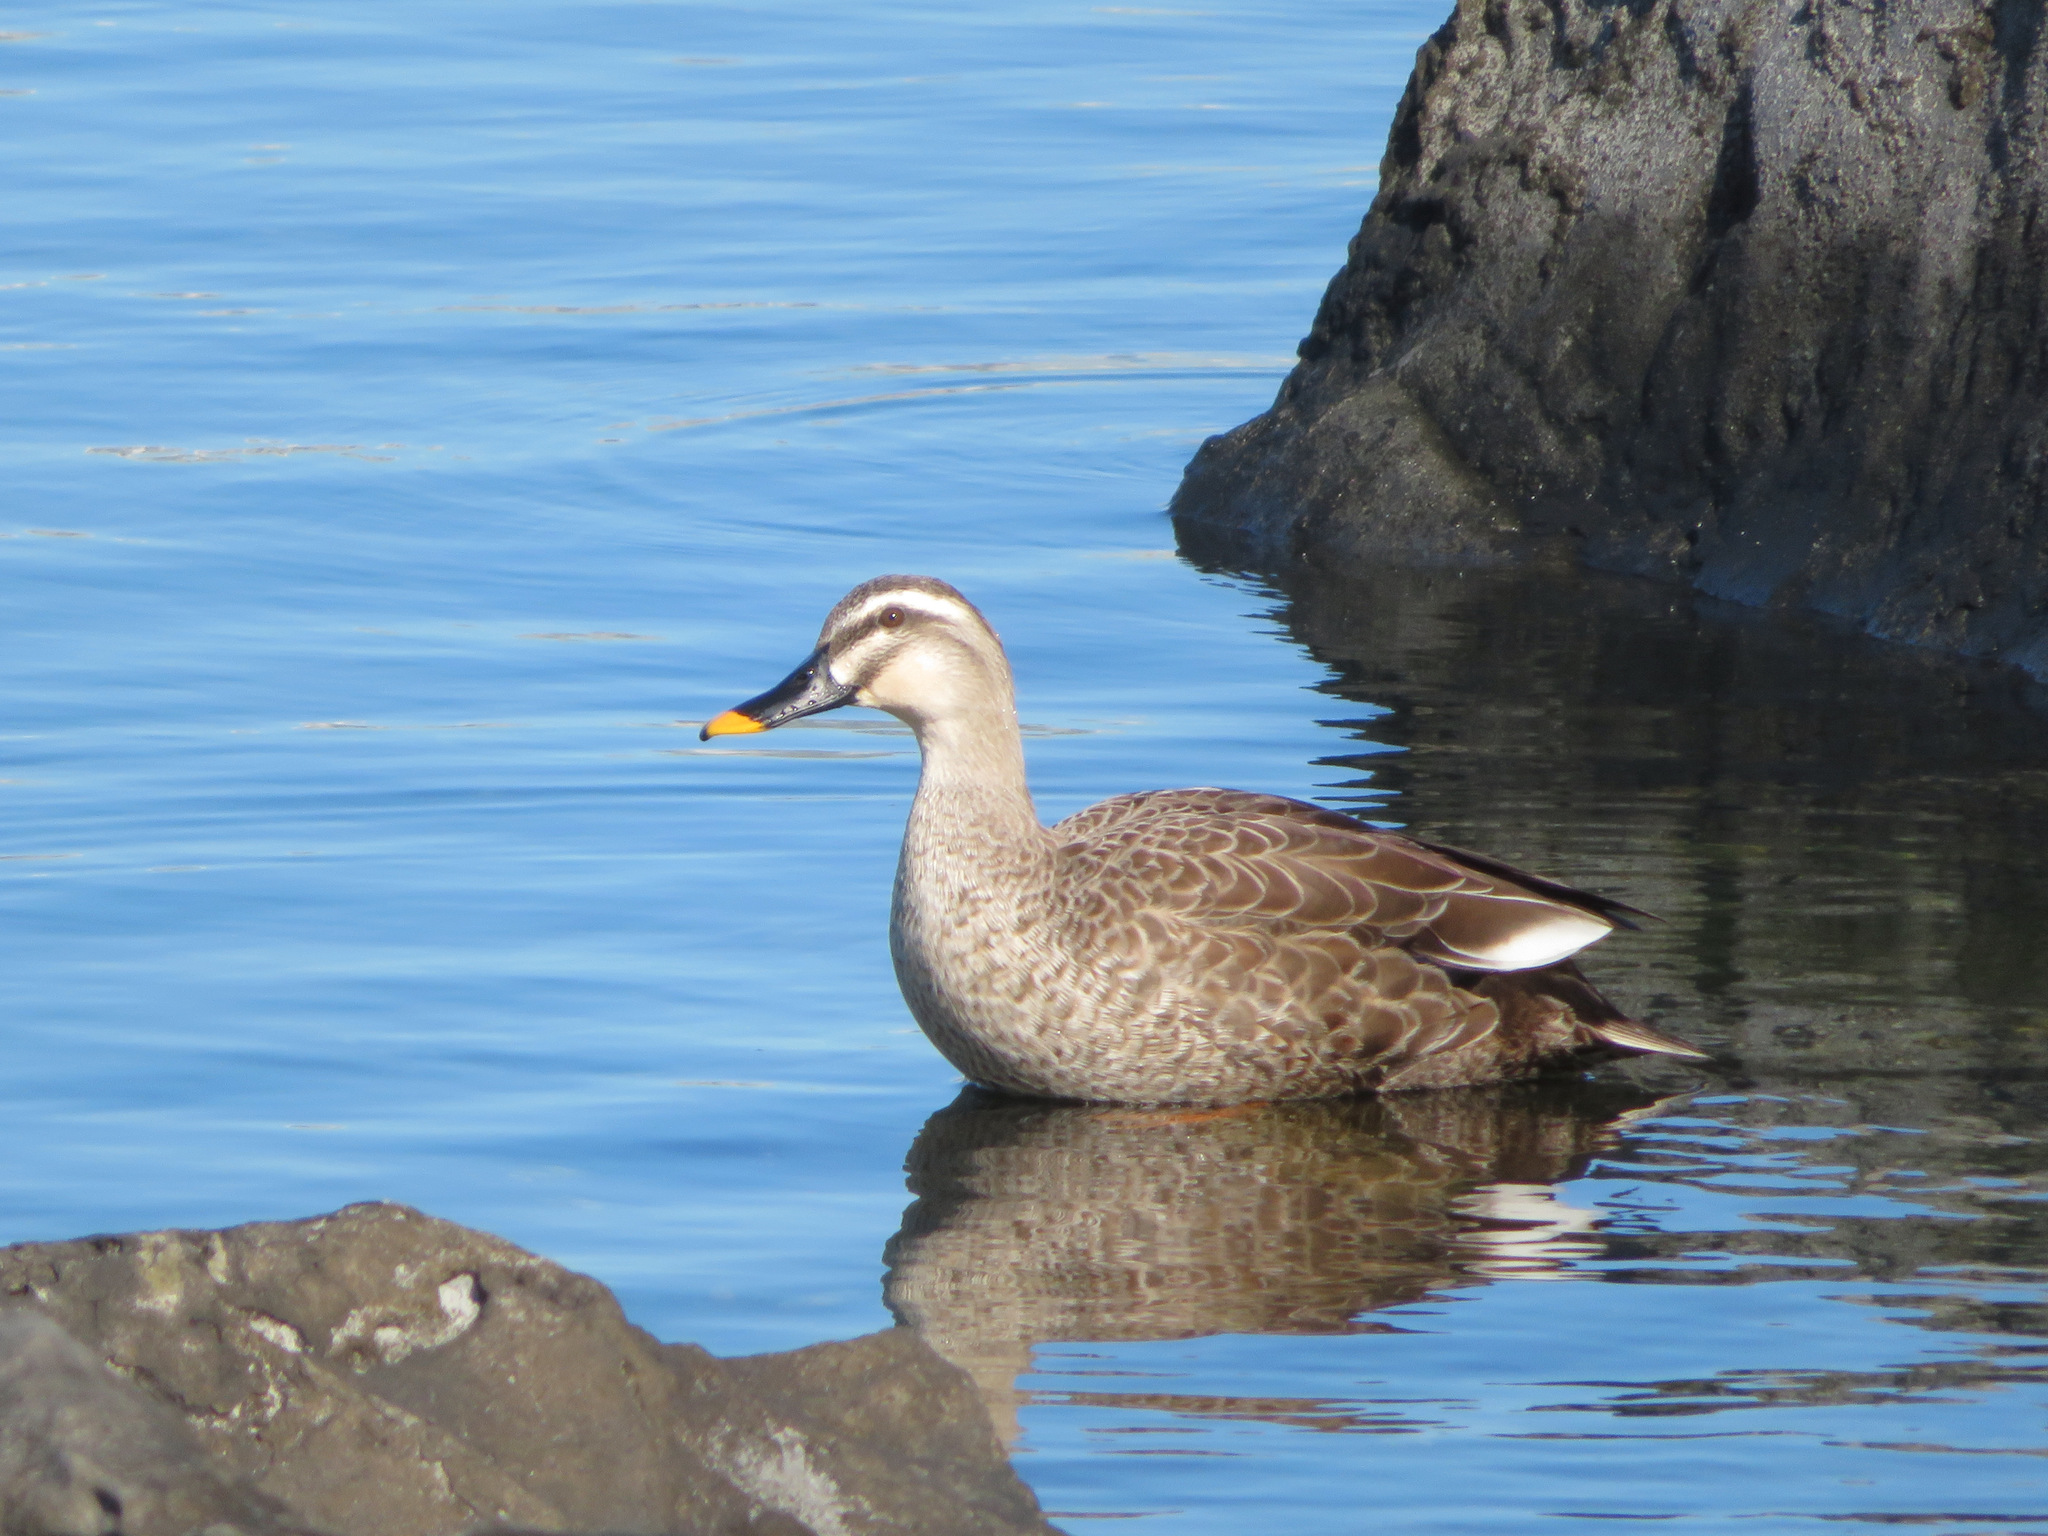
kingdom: Animalia
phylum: Chordata
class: Aves
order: Anseriformes
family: Anatidae
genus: Anas
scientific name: Anas zonorhyncha
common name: Eastern spot-billed duck
